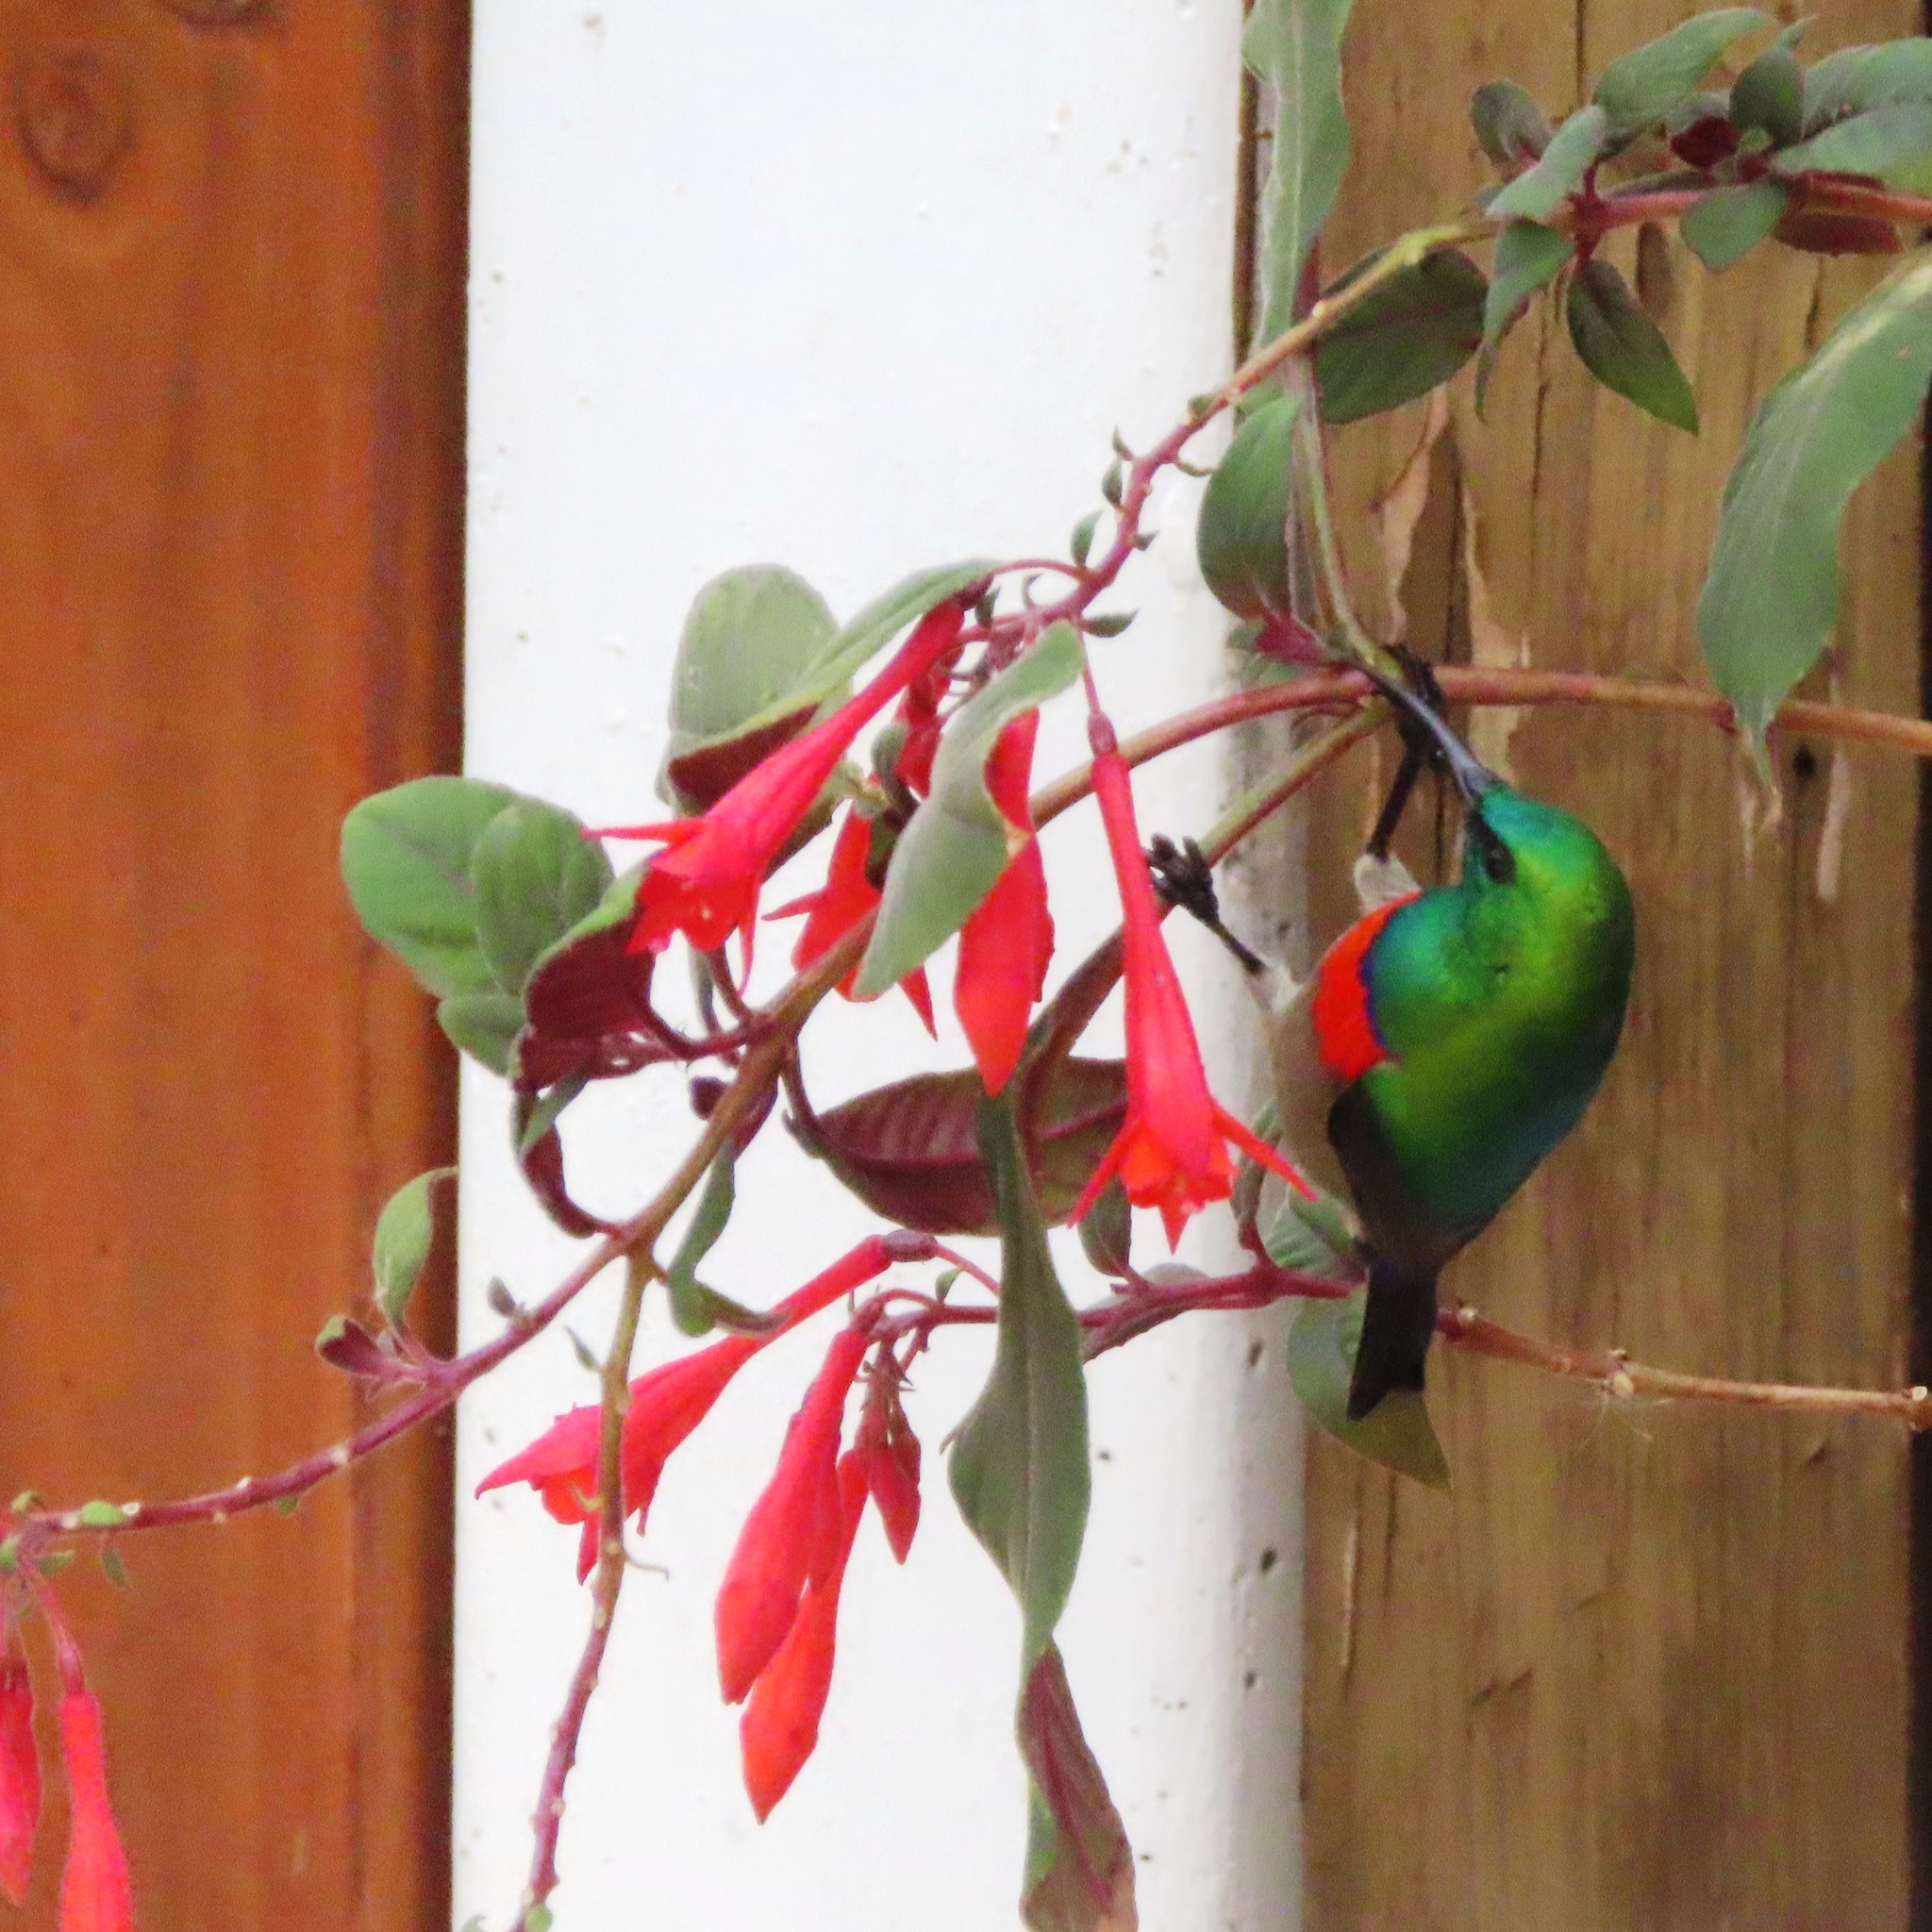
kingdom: Animalia
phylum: Chordata
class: Aves
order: Passeriformes
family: Nectariniidae
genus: Cinnyris
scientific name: Cinnyris chalybeus
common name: Southern double-collared sunbird
